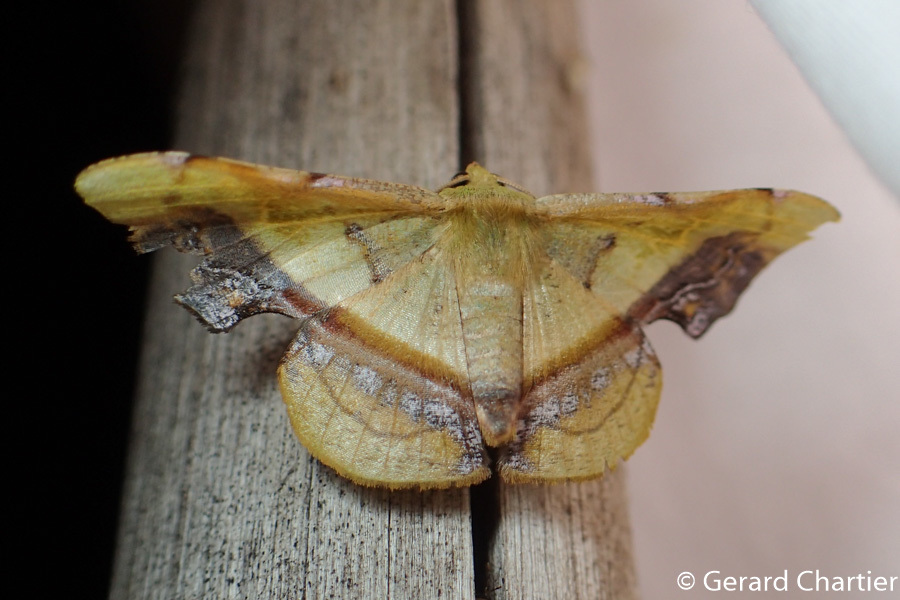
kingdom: Animalia
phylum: Arthropoda
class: Insecta
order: Lepidoptera
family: Geometridae
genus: Fascellina
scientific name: Fascellina plagiata
